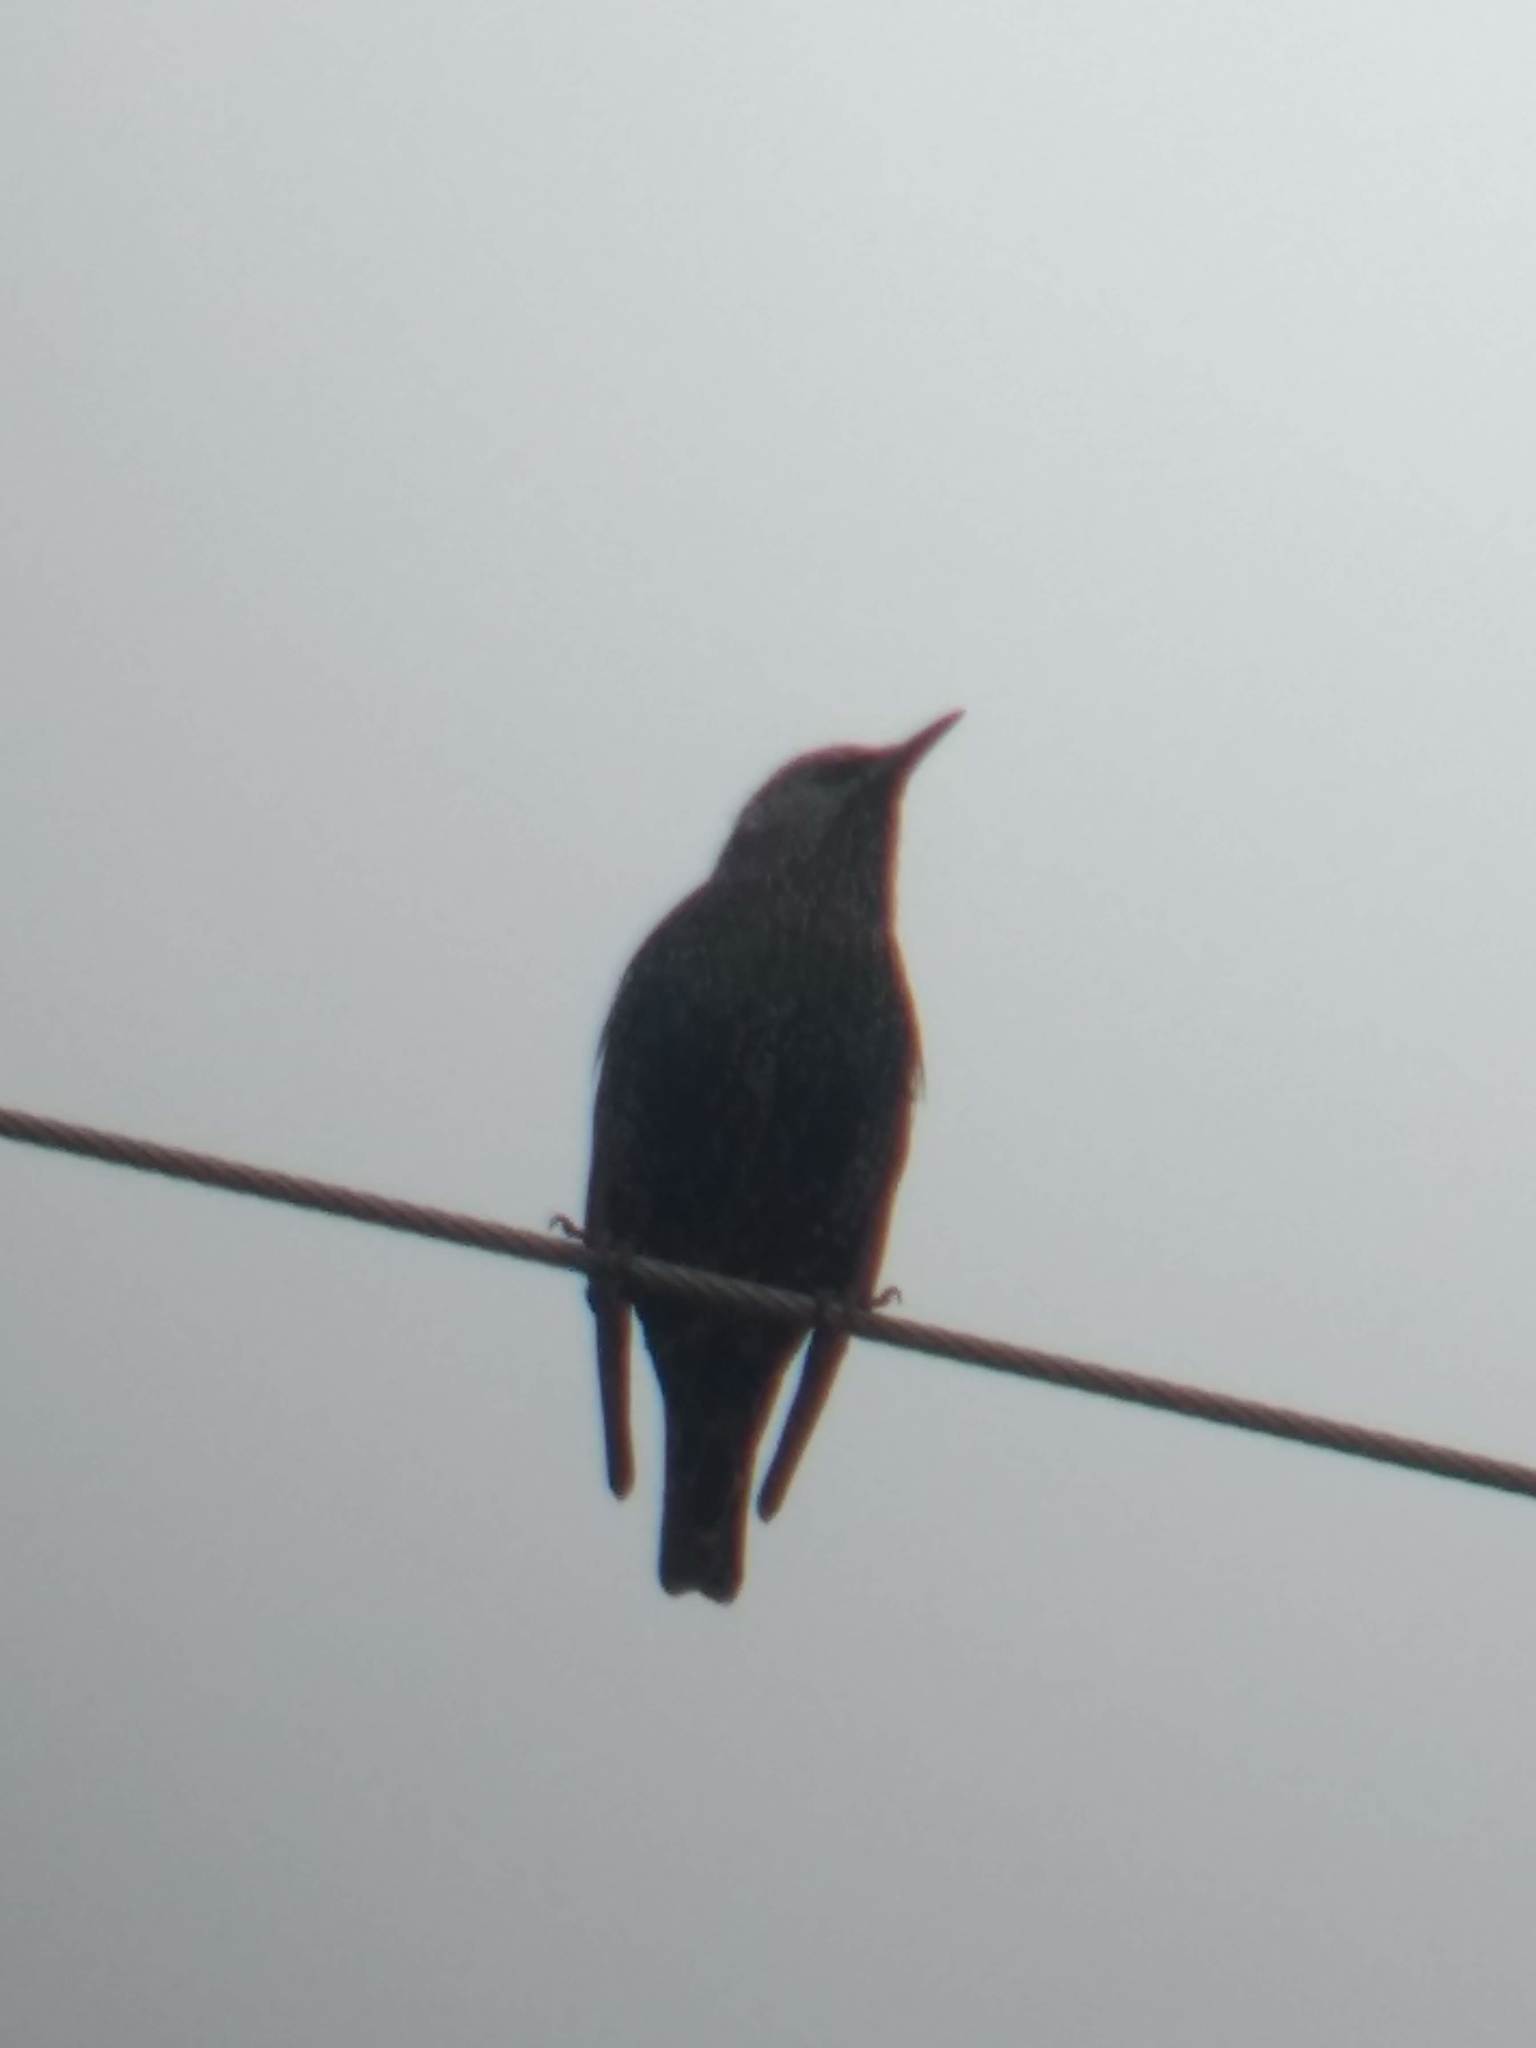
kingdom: Animalia
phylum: Chordata
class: Aves
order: Passeriformes
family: Sturnidae
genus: Sturnus
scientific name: Sturnus vulgaris
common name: Common starling
